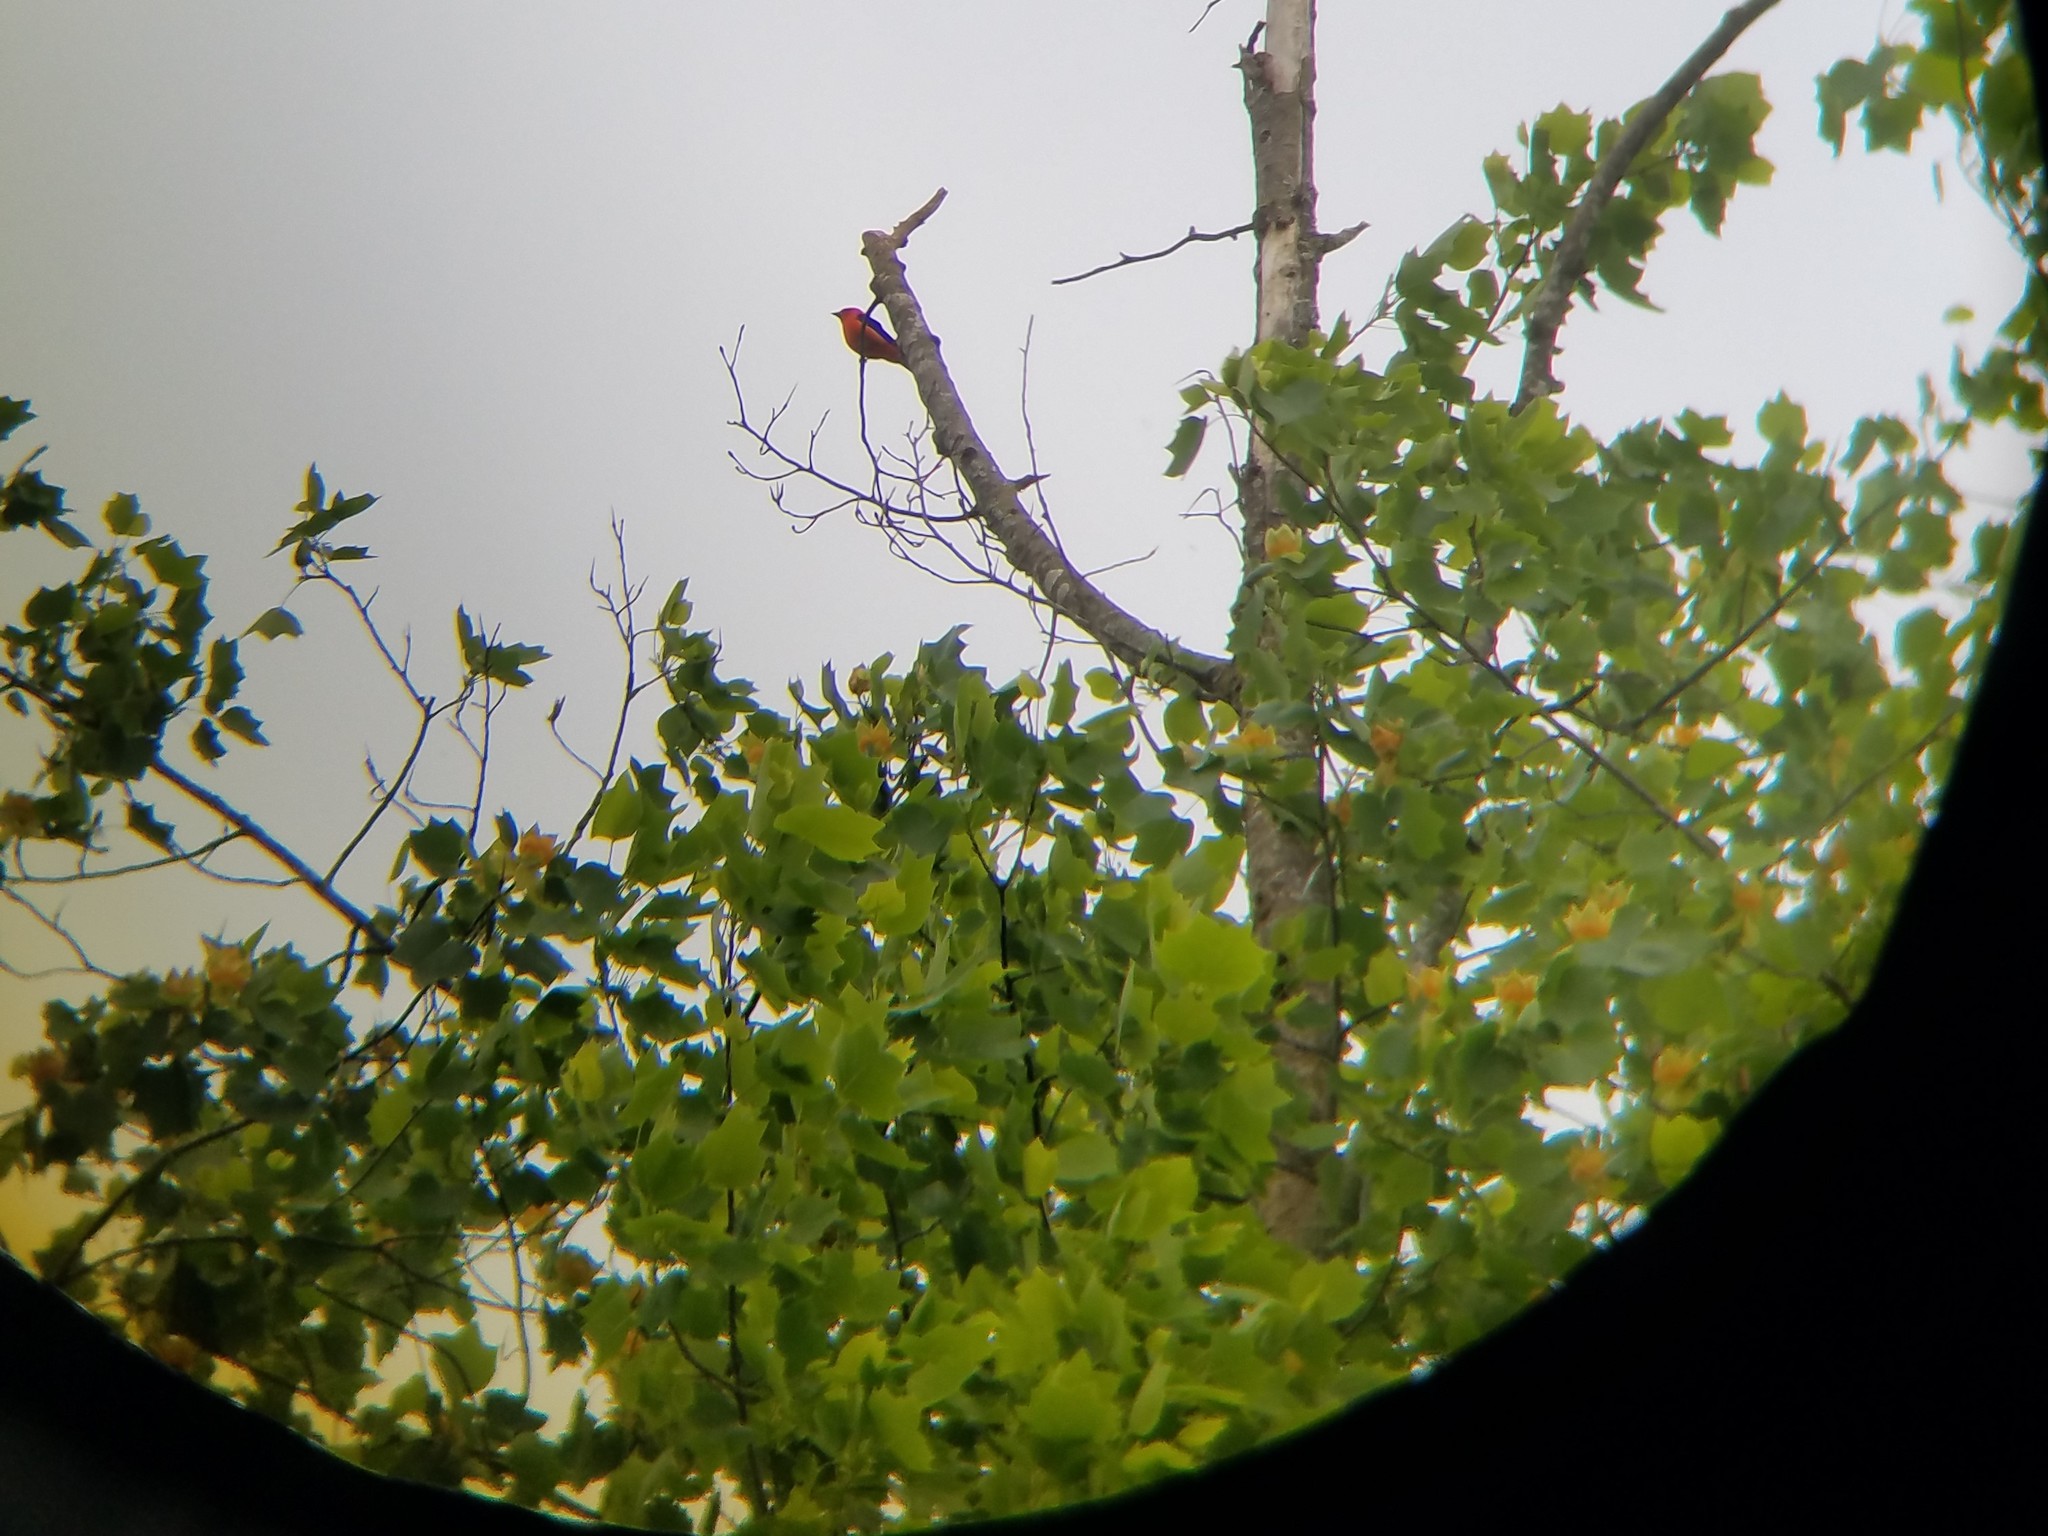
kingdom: Plantae
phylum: Tracheophyta
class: Magnoliopsida
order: Magnoliales
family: Magnoliaceae
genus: Liriodendron
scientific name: Liriodendron tulipifera
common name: Tulip tree
